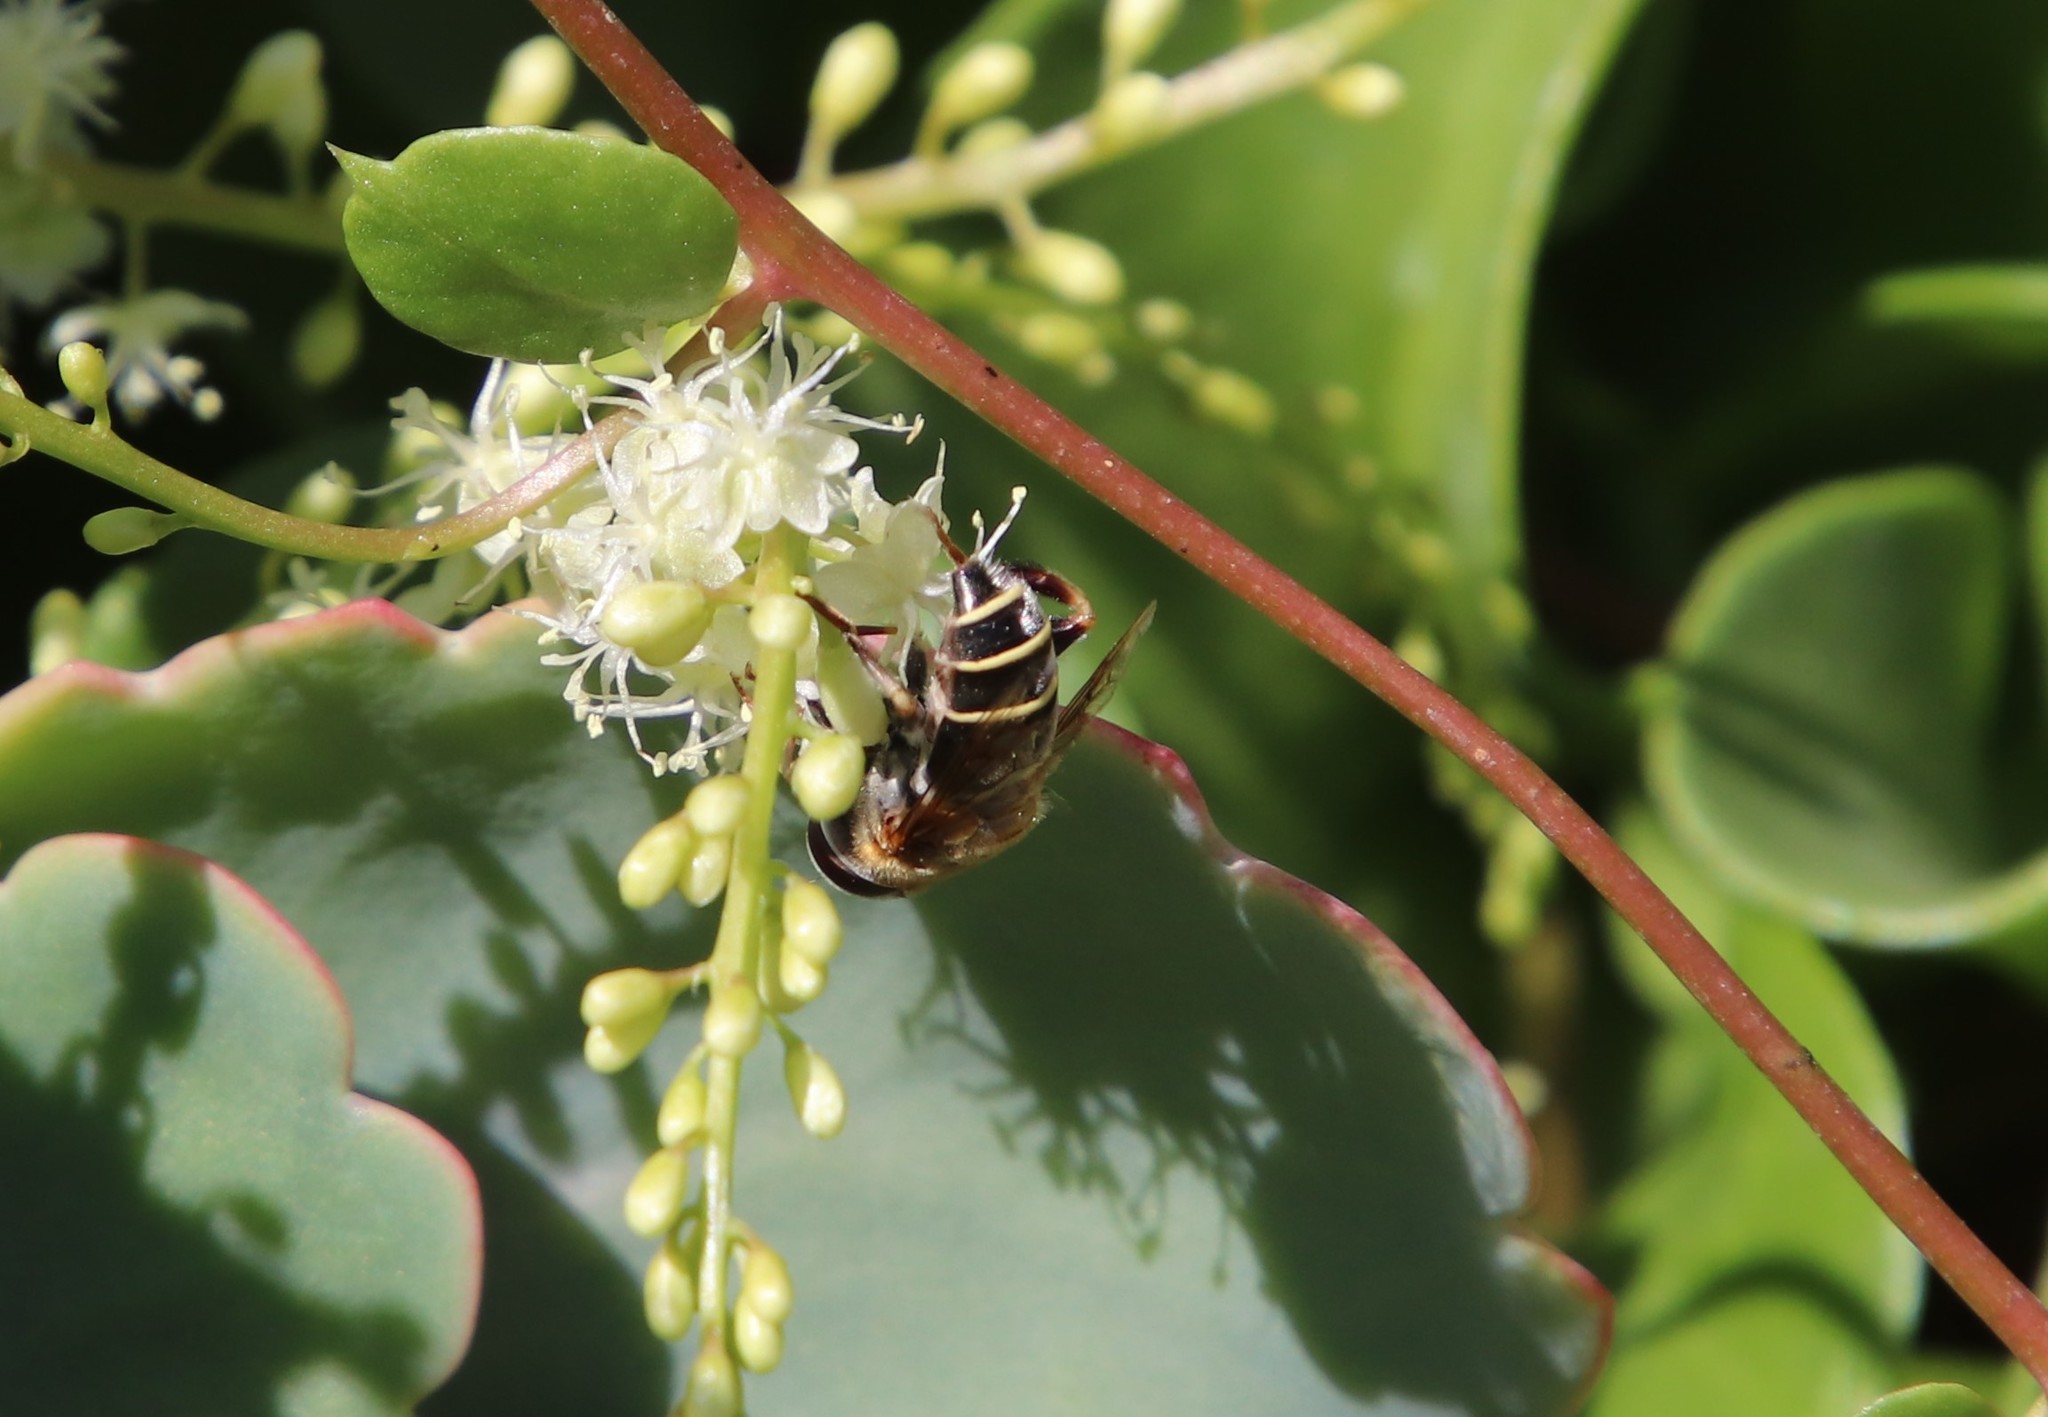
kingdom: Animalia
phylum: Arthropoda
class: Insecta
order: Diptera
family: Syrphidae
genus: Palpada
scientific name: Palpada mexicana
